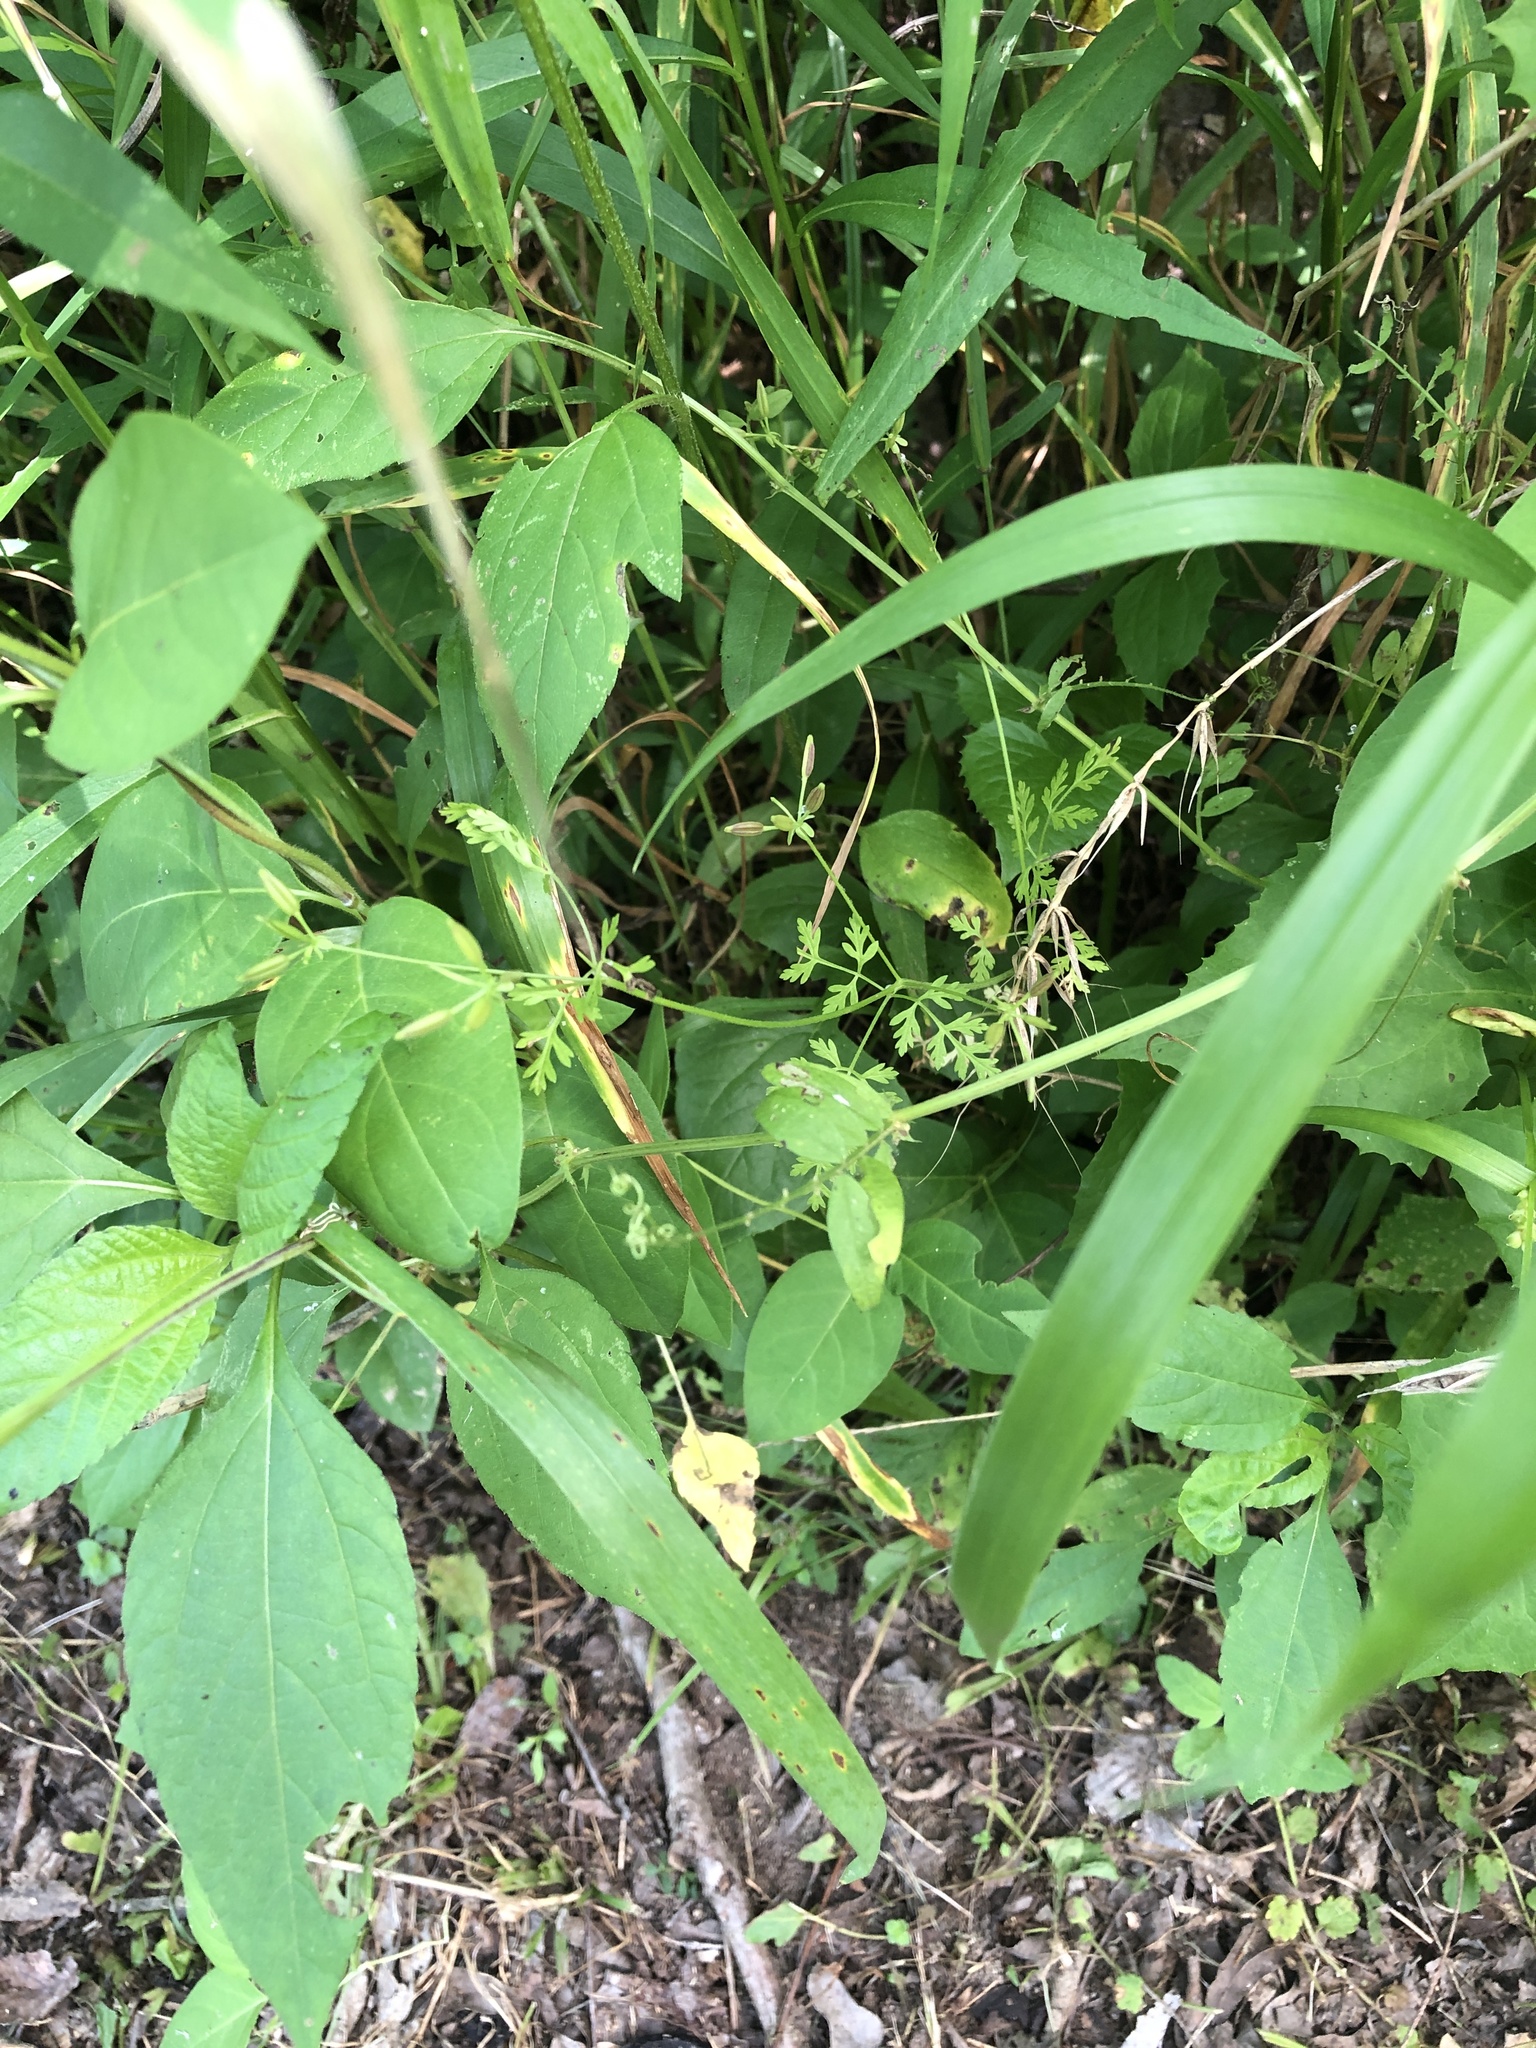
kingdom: Plantae
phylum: Tracheophyta
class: Magnoliopsida
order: Apiales
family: Apiaceae
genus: Chaerophyllum
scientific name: Chaerophyllum tainturieri
